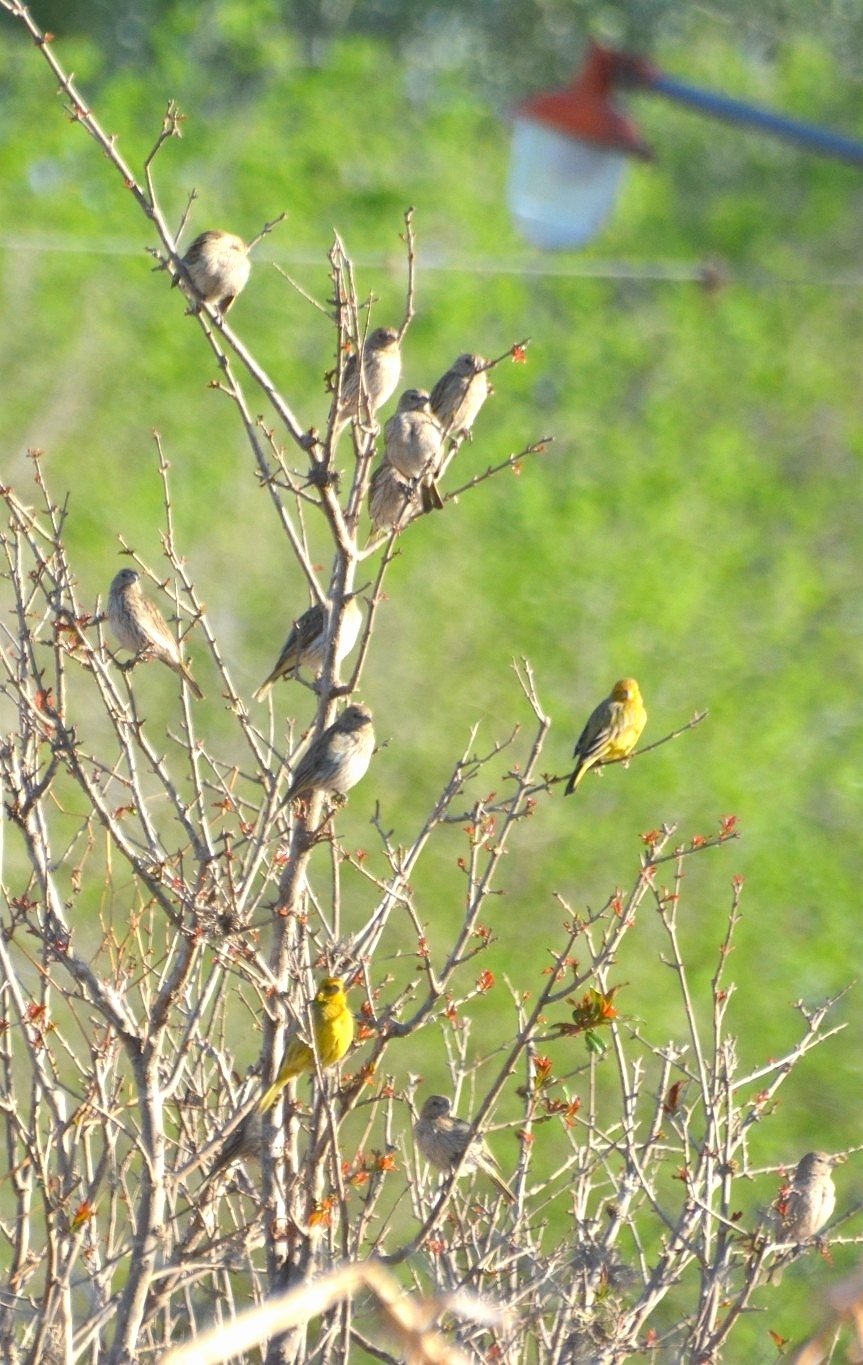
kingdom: Animalia
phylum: Chordata
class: Aves
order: Passeriformes
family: Thraupidae
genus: Sicalis
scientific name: Sicalis flaveola
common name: Saffron finch
